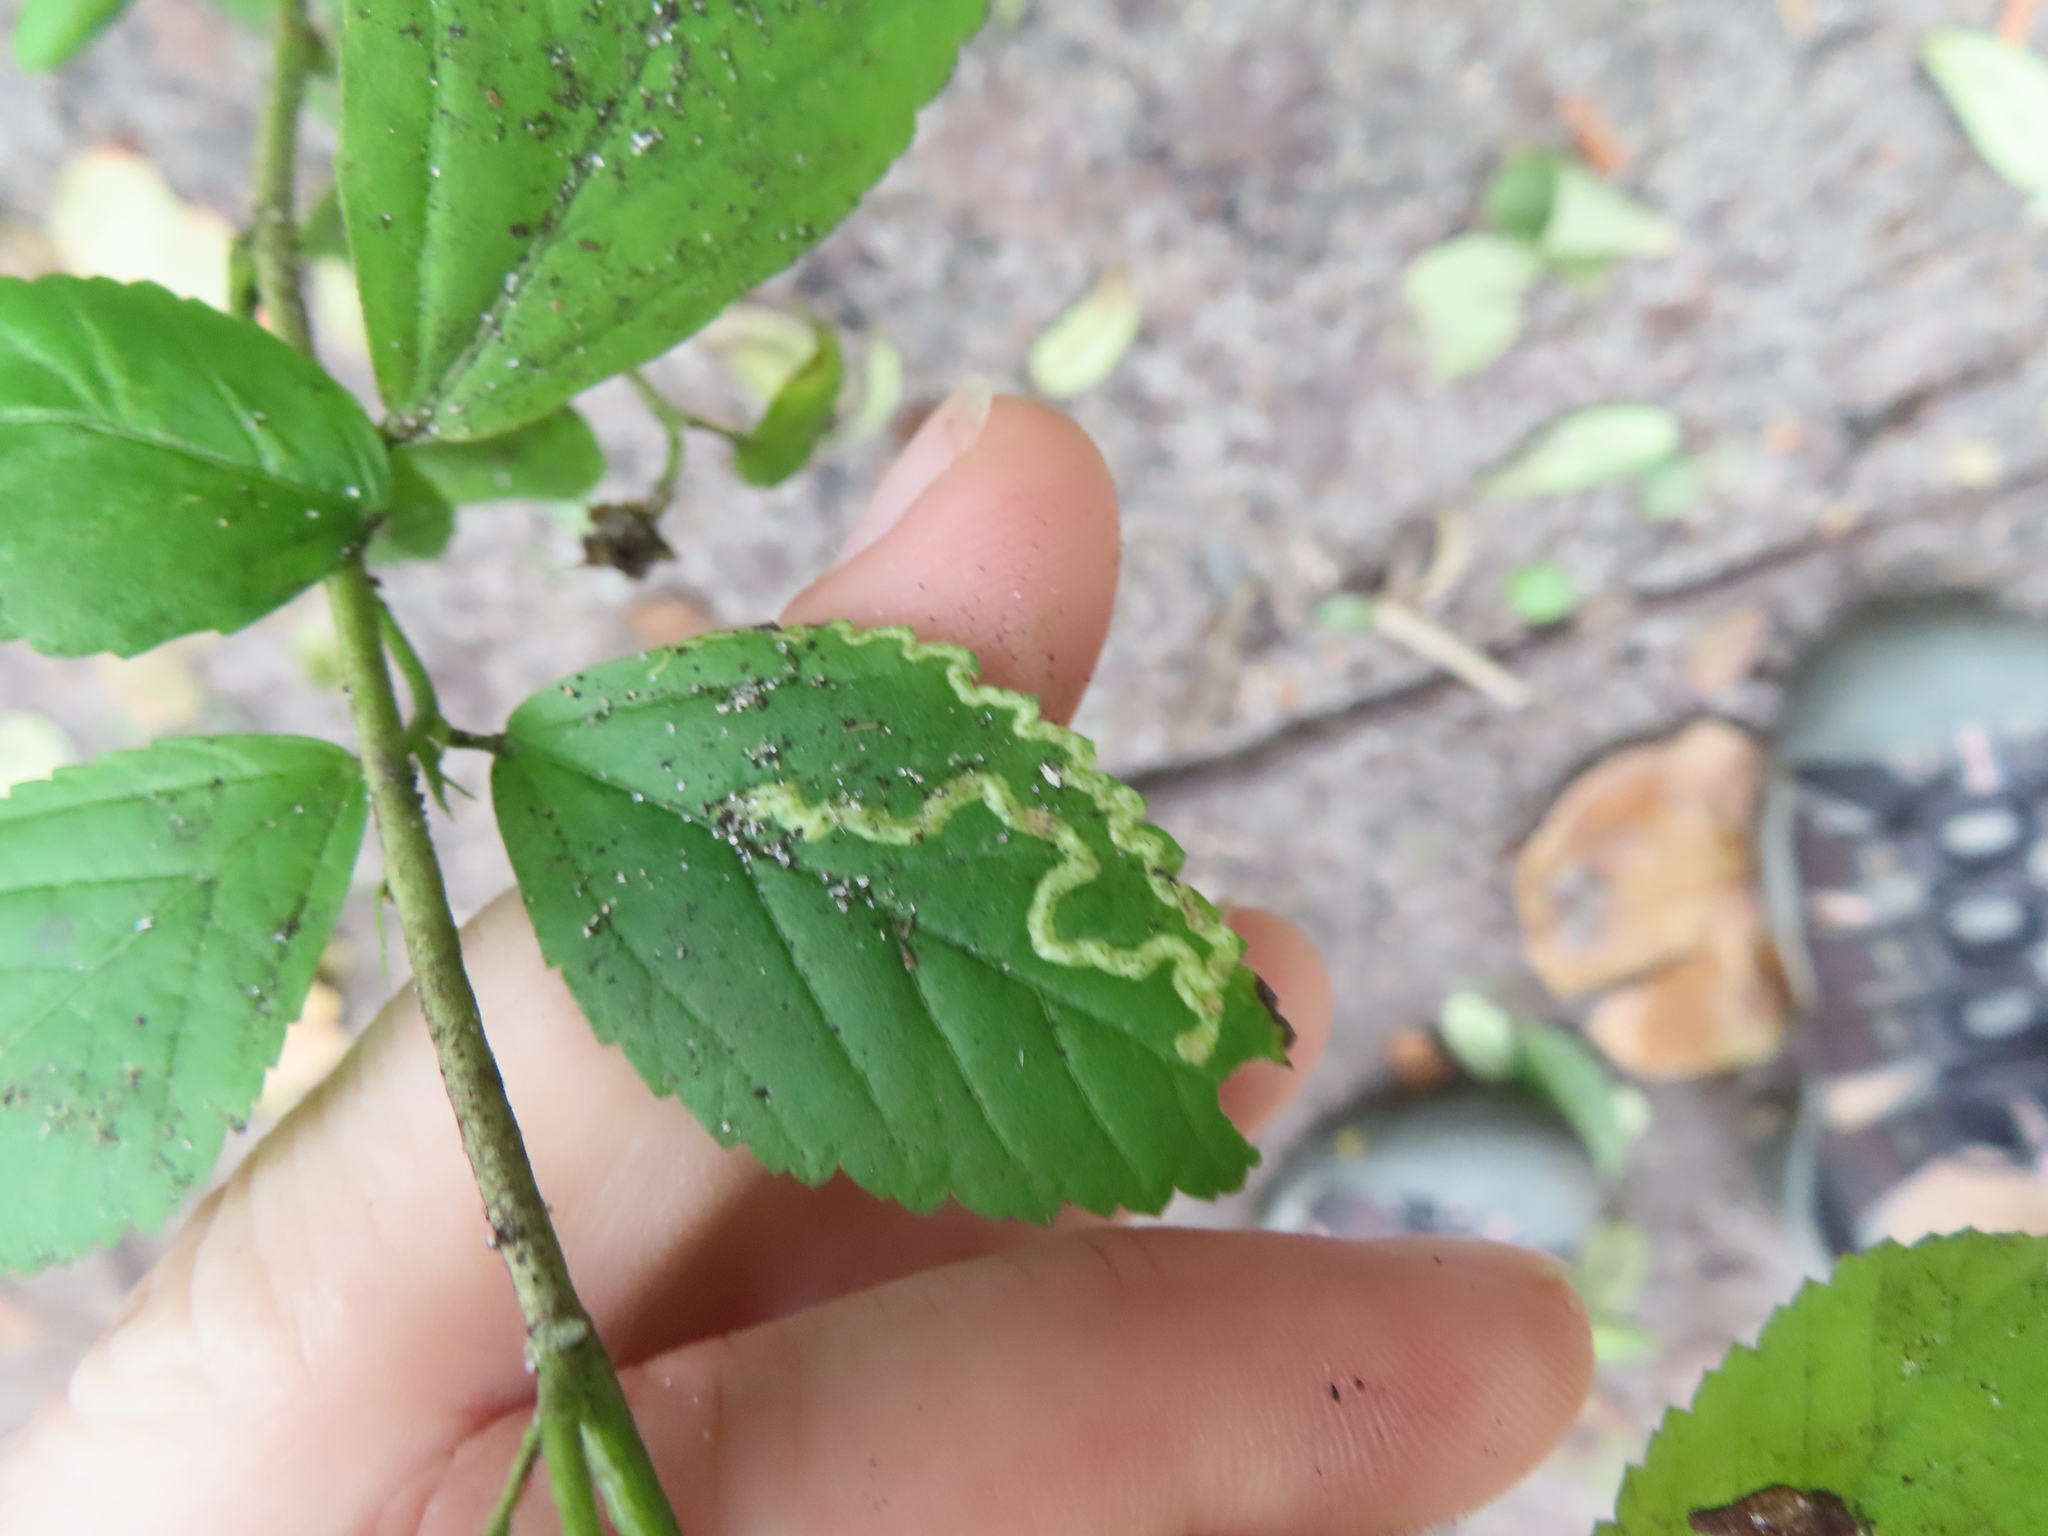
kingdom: Animalia
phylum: Arthropoda
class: Insecta
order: Diptera
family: Agromyzidae
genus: Calycomyza
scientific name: Calycomyza malvae
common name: Mallow leaf miner
